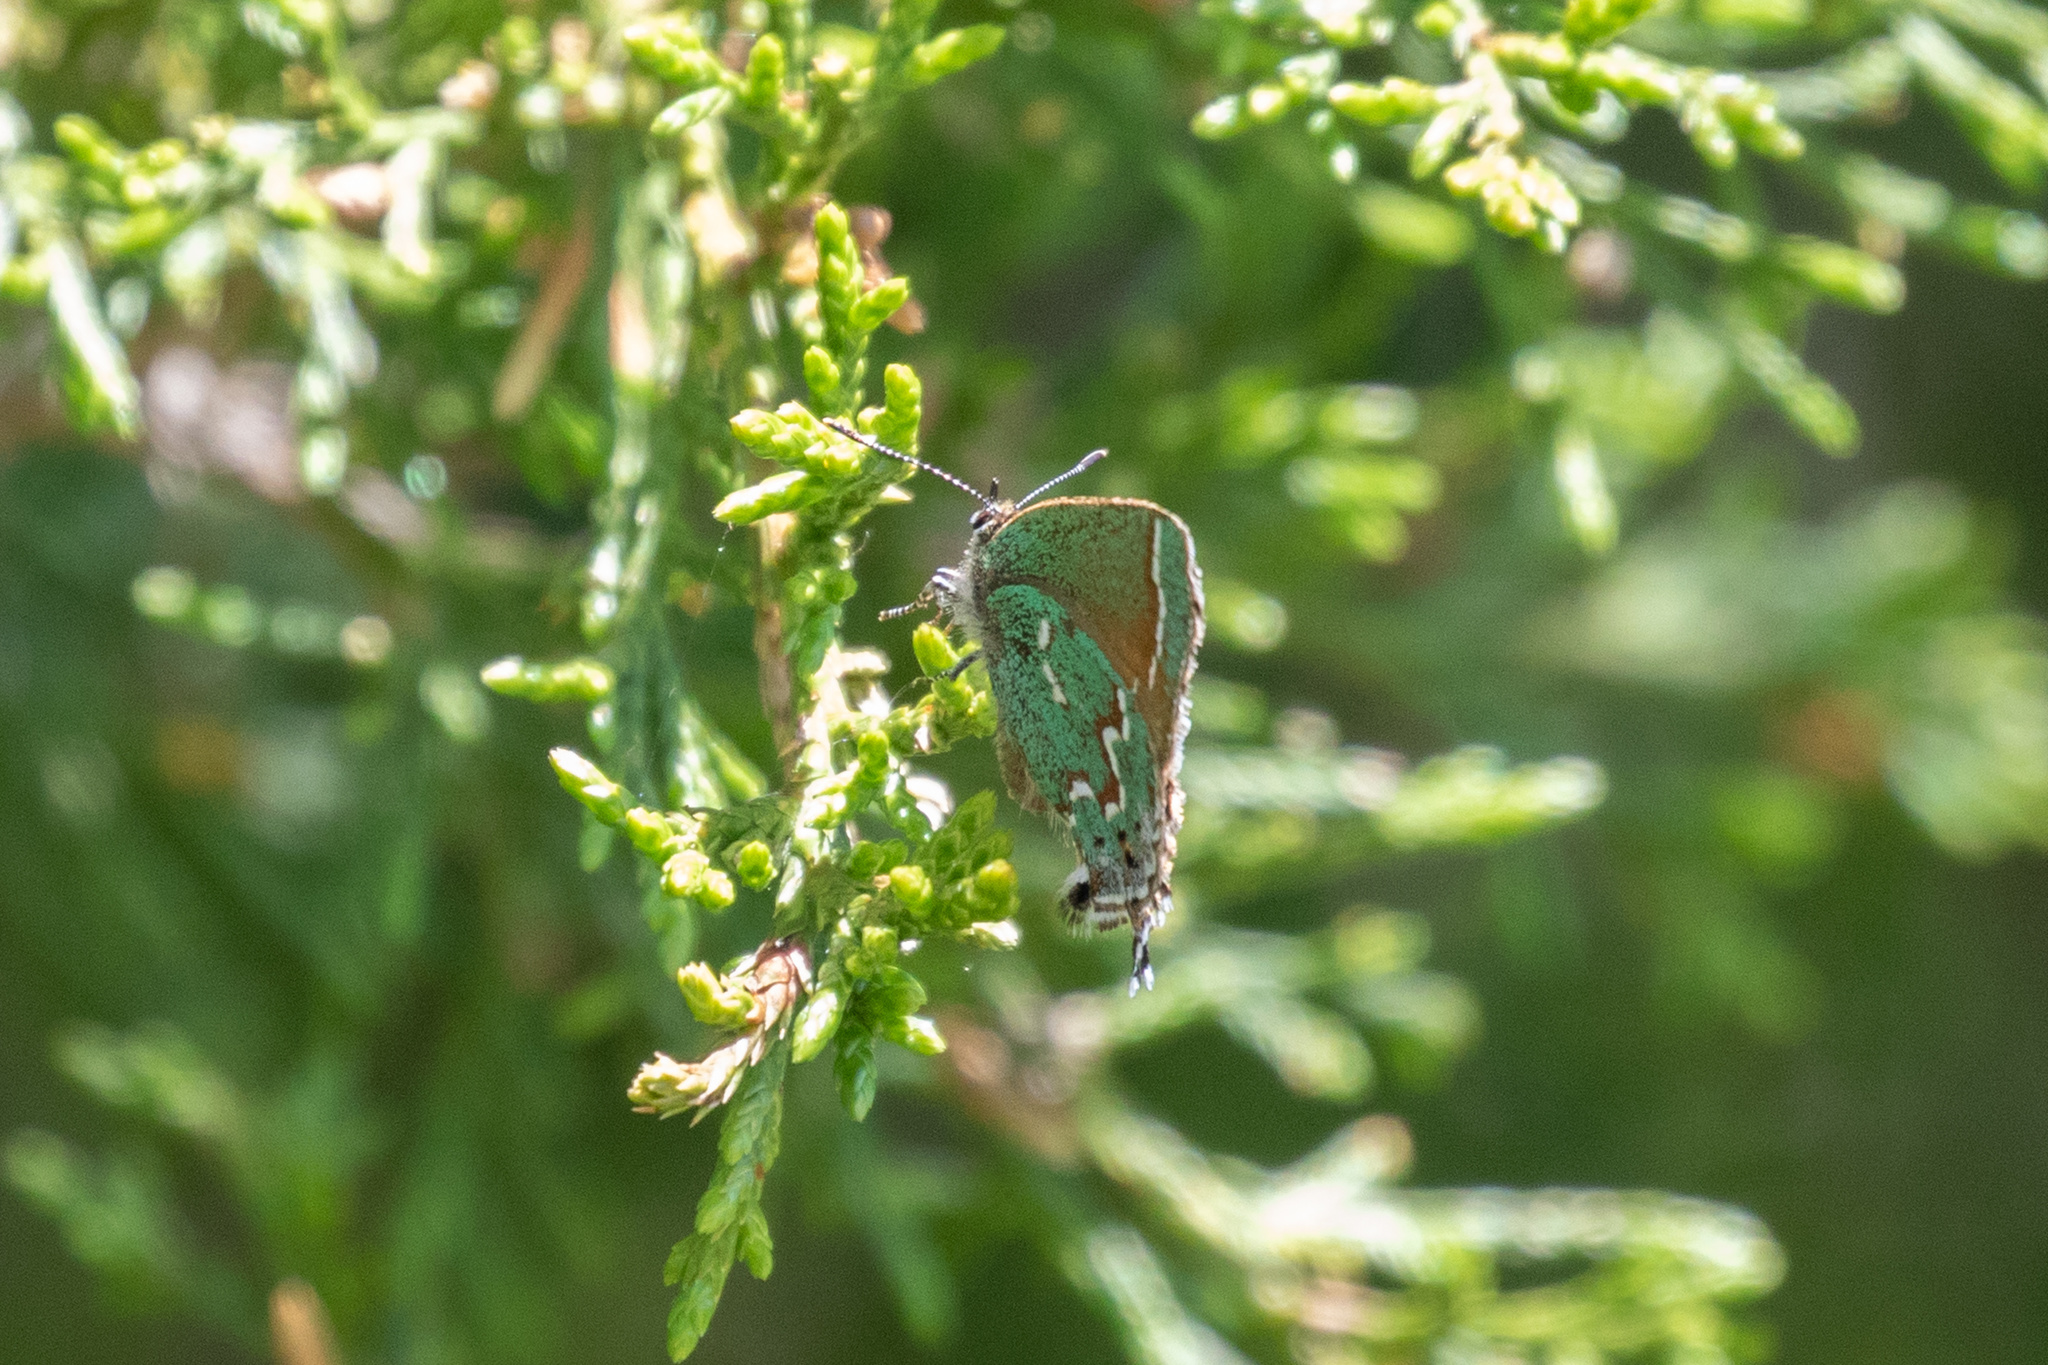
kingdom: Animalia
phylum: Arthropoda
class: Insecta
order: Lepidoptera
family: Lycaenidae
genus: Mitoura
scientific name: Mitoura gryneus
